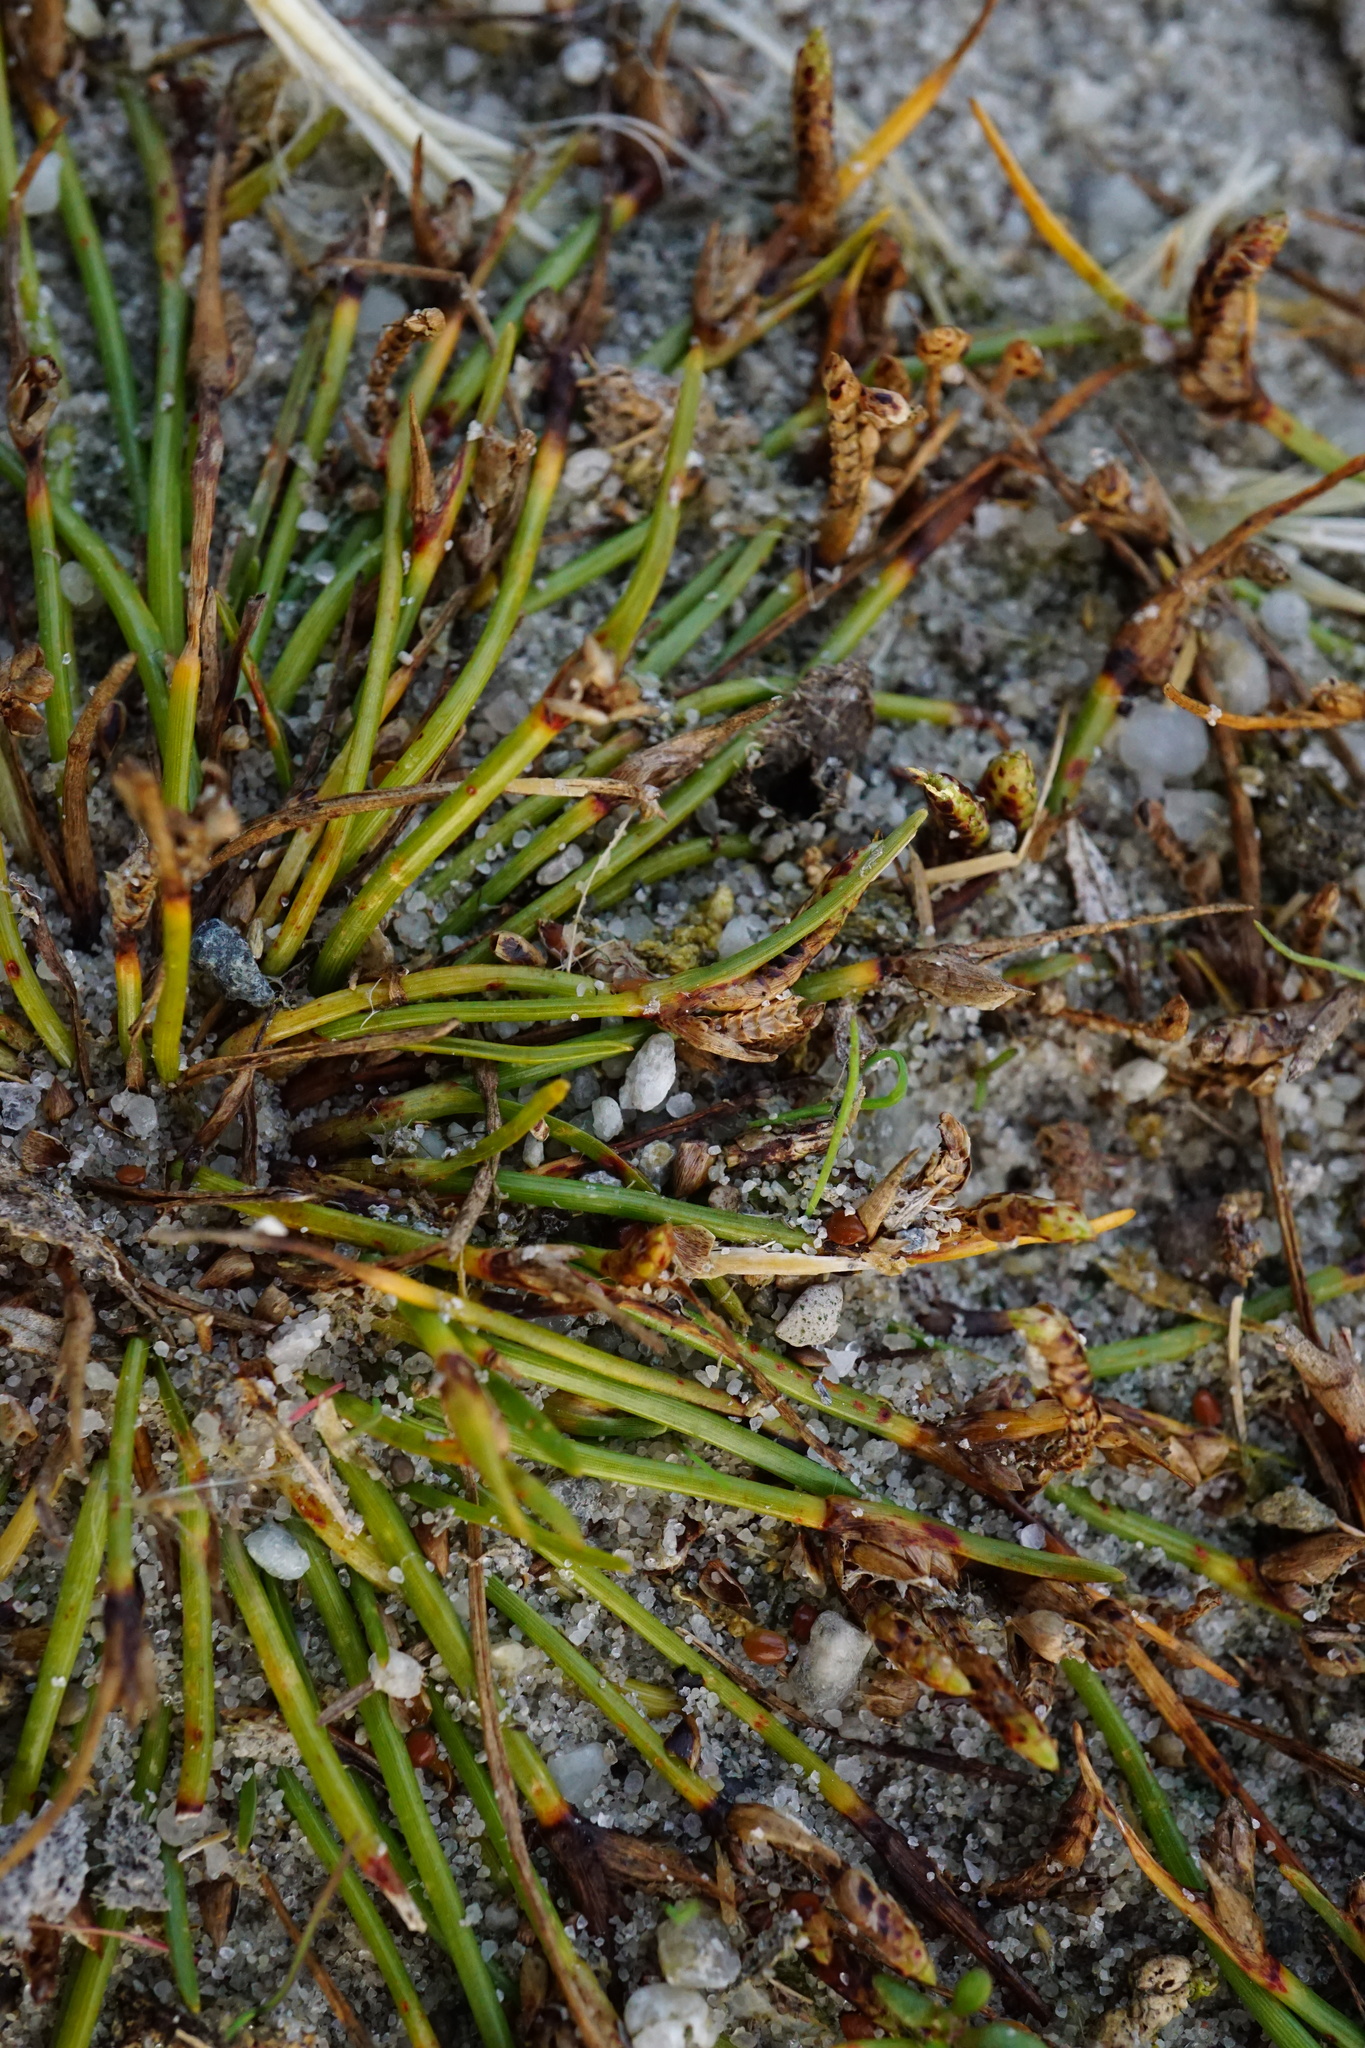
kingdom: Plantae
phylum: Tracheophyta
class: Liliopsida
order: Poales
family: Cyperaceae
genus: Cyperus
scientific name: Cyperus pannonicus
